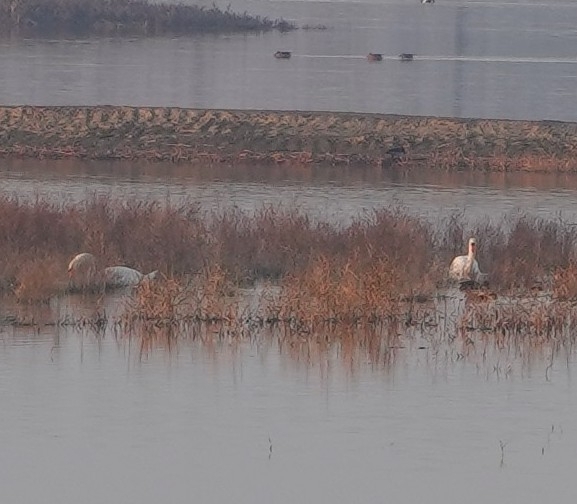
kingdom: Animalia
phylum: Chordata
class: Aves
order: Anseriformes
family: Anatidae
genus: Cygnus
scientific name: Cygnus olor
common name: Mute swan
